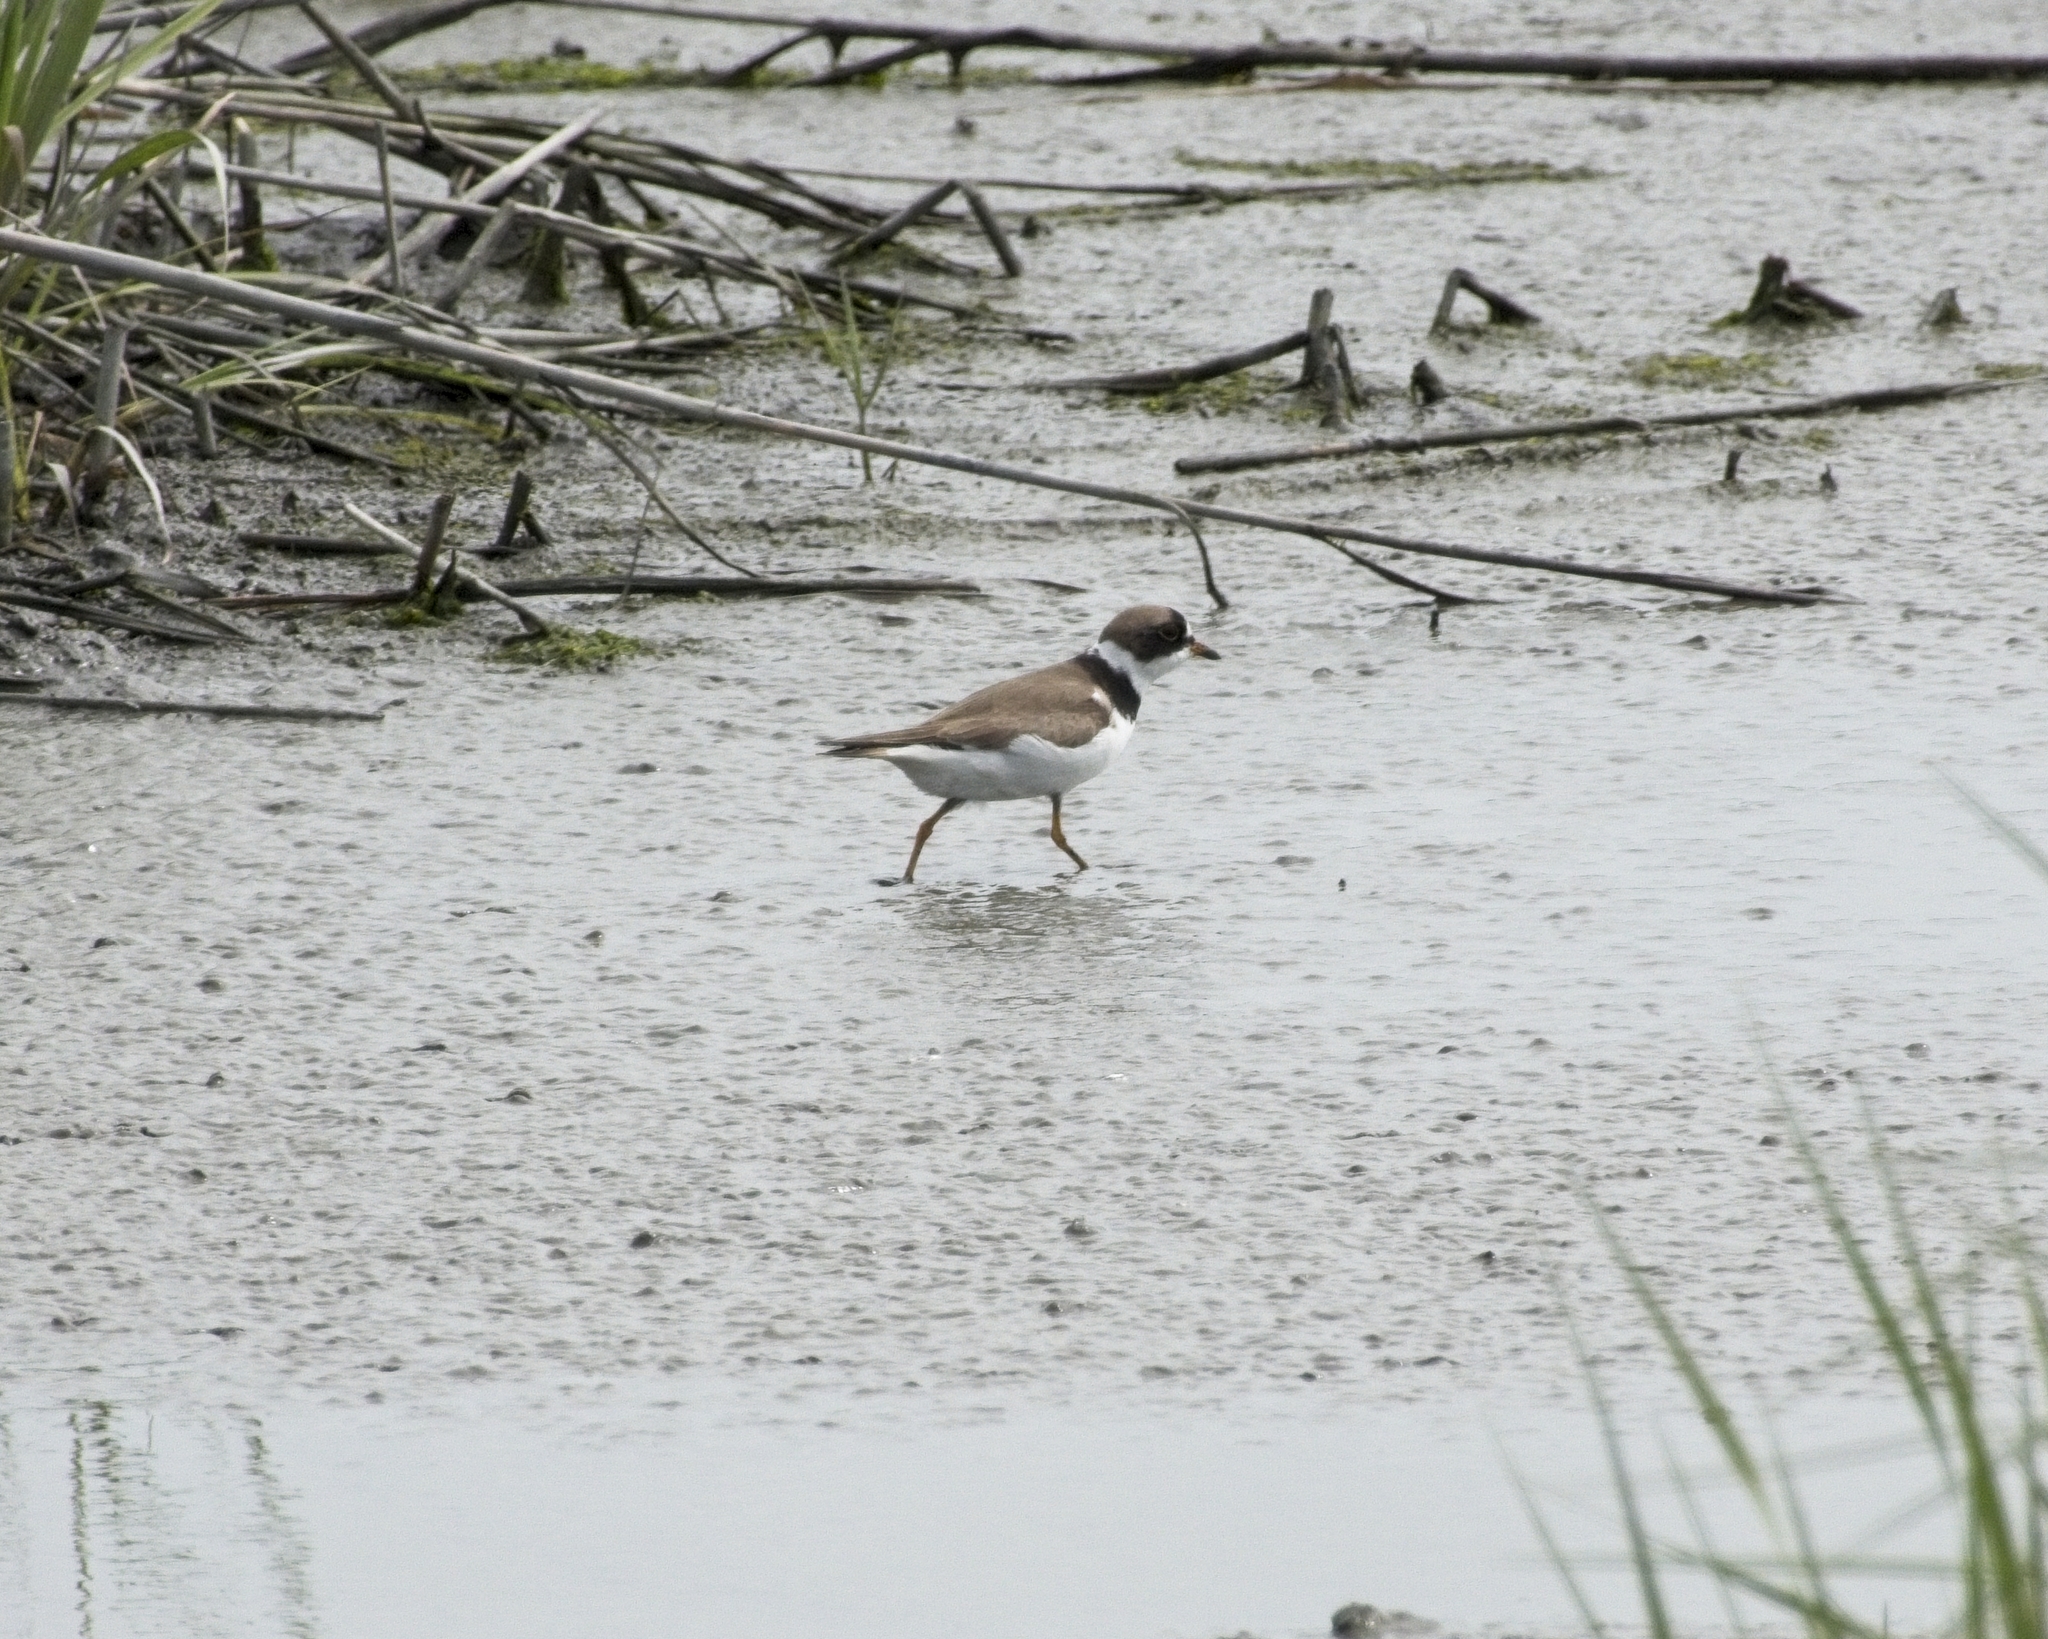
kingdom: Animalia
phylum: Chordata
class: Aves
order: Charadriiformes
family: Charadriidae
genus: Charadrius
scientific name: Charadrius semipalmatus
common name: Semipalmated plover
